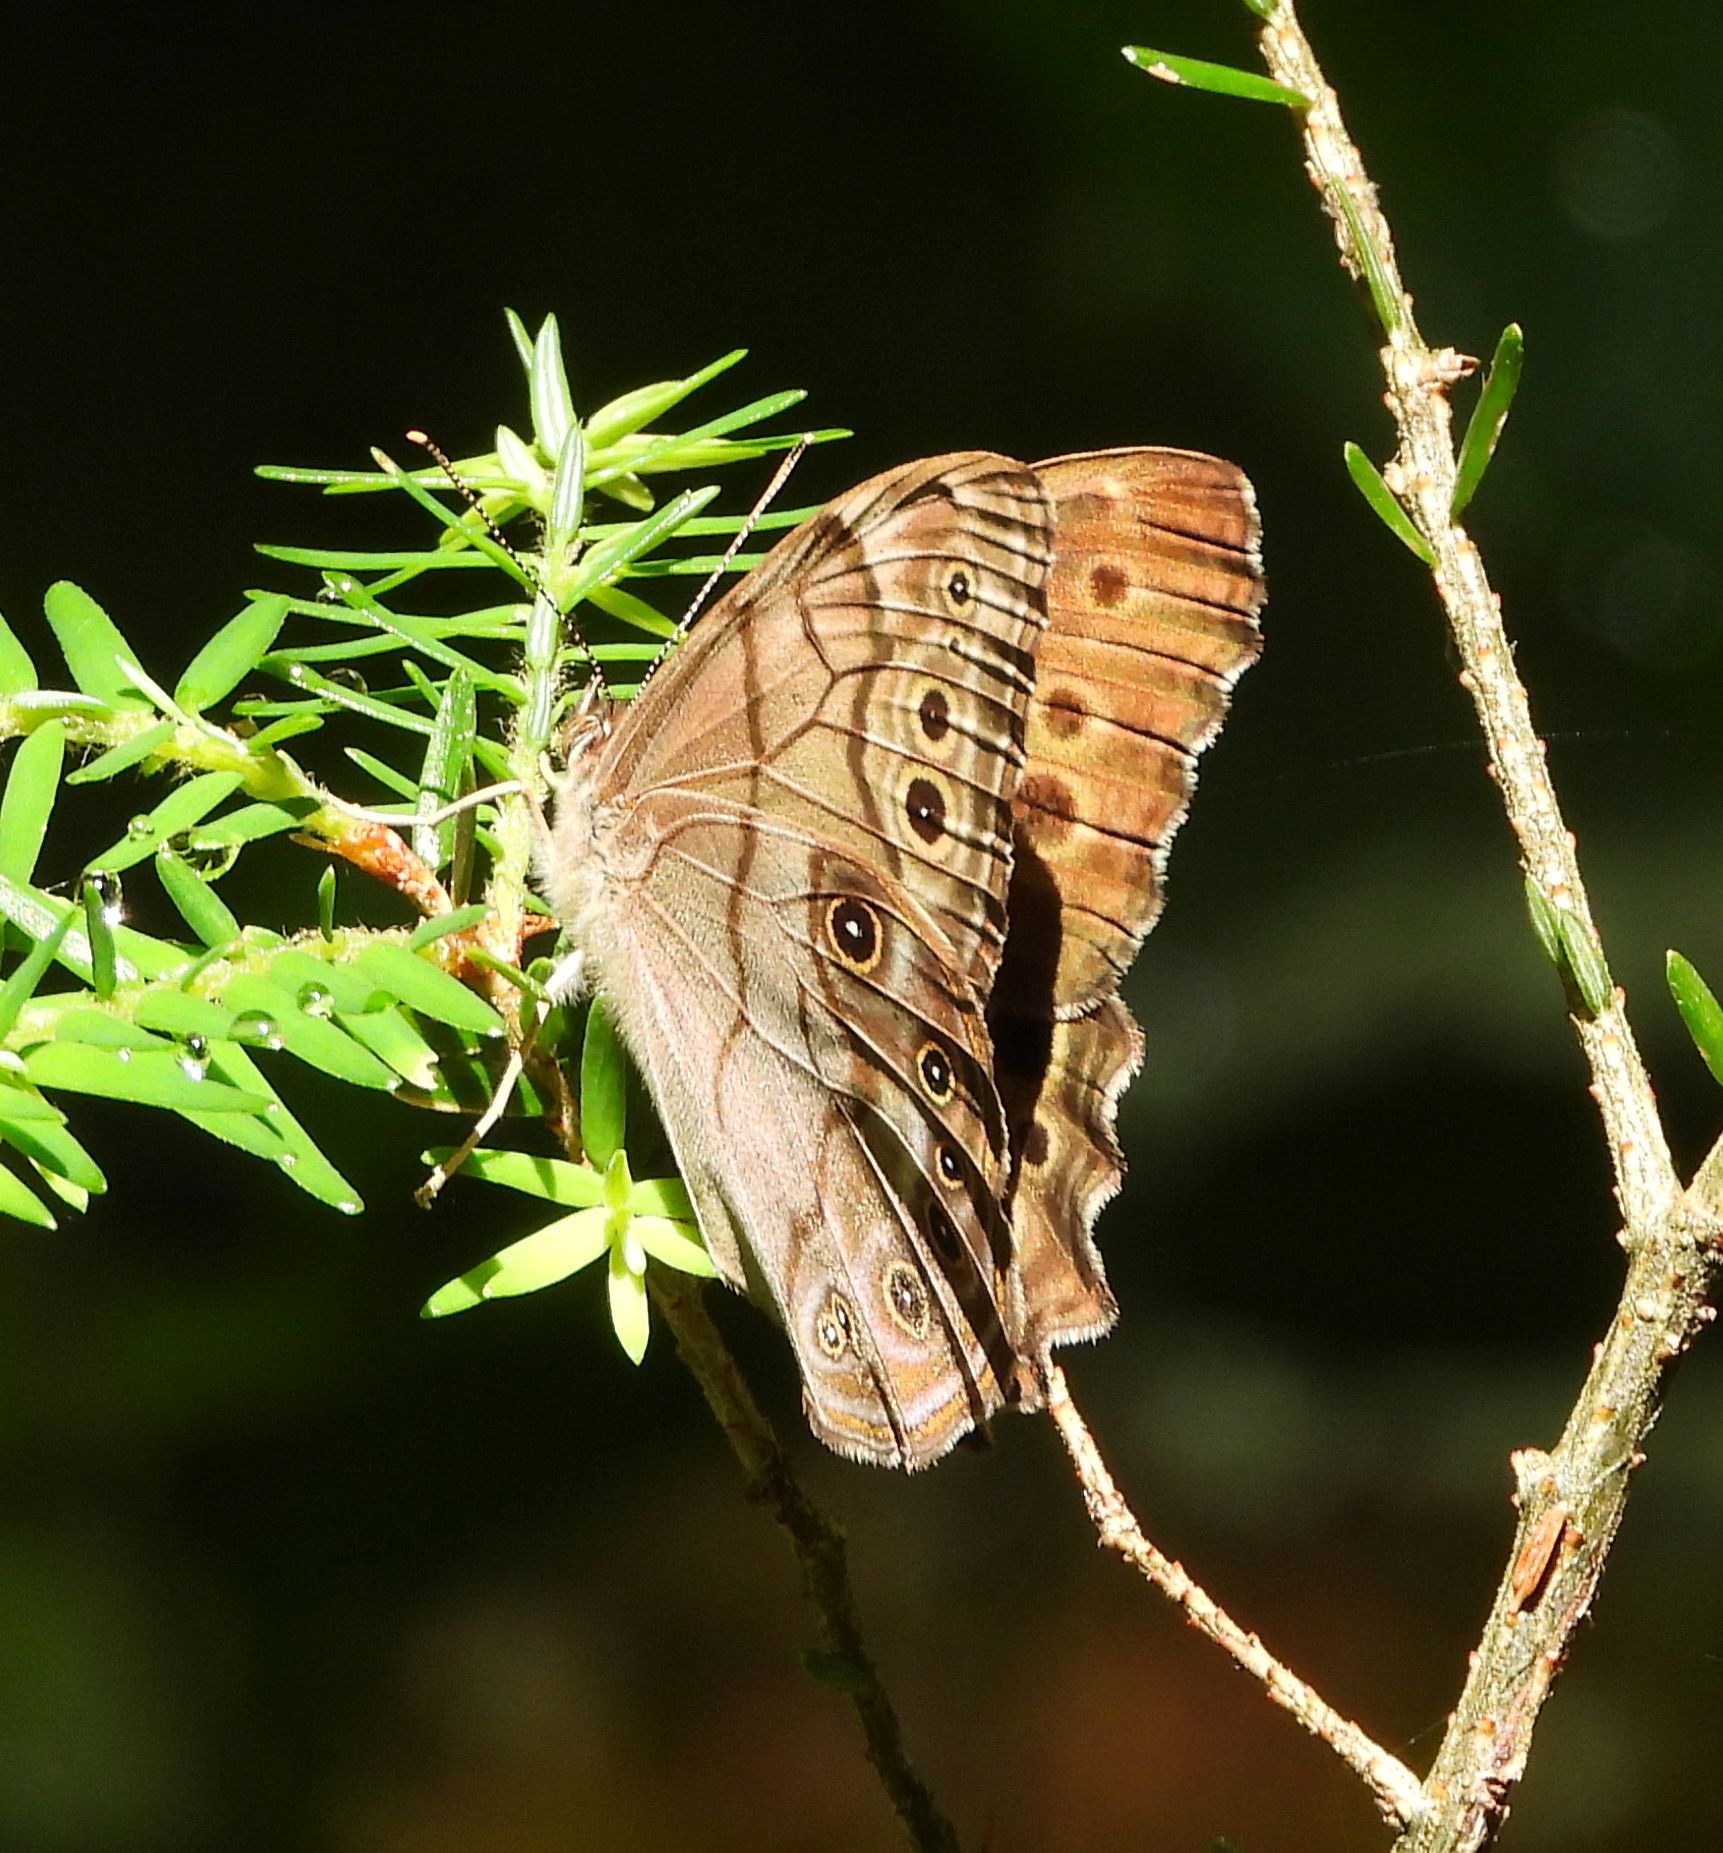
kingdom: Animalia
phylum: Arthropoda
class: Insecta
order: Lepidoptera
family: Nymphalidae
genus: Lethe
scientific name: Lethe anthedon
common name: Northern pearly-eye
